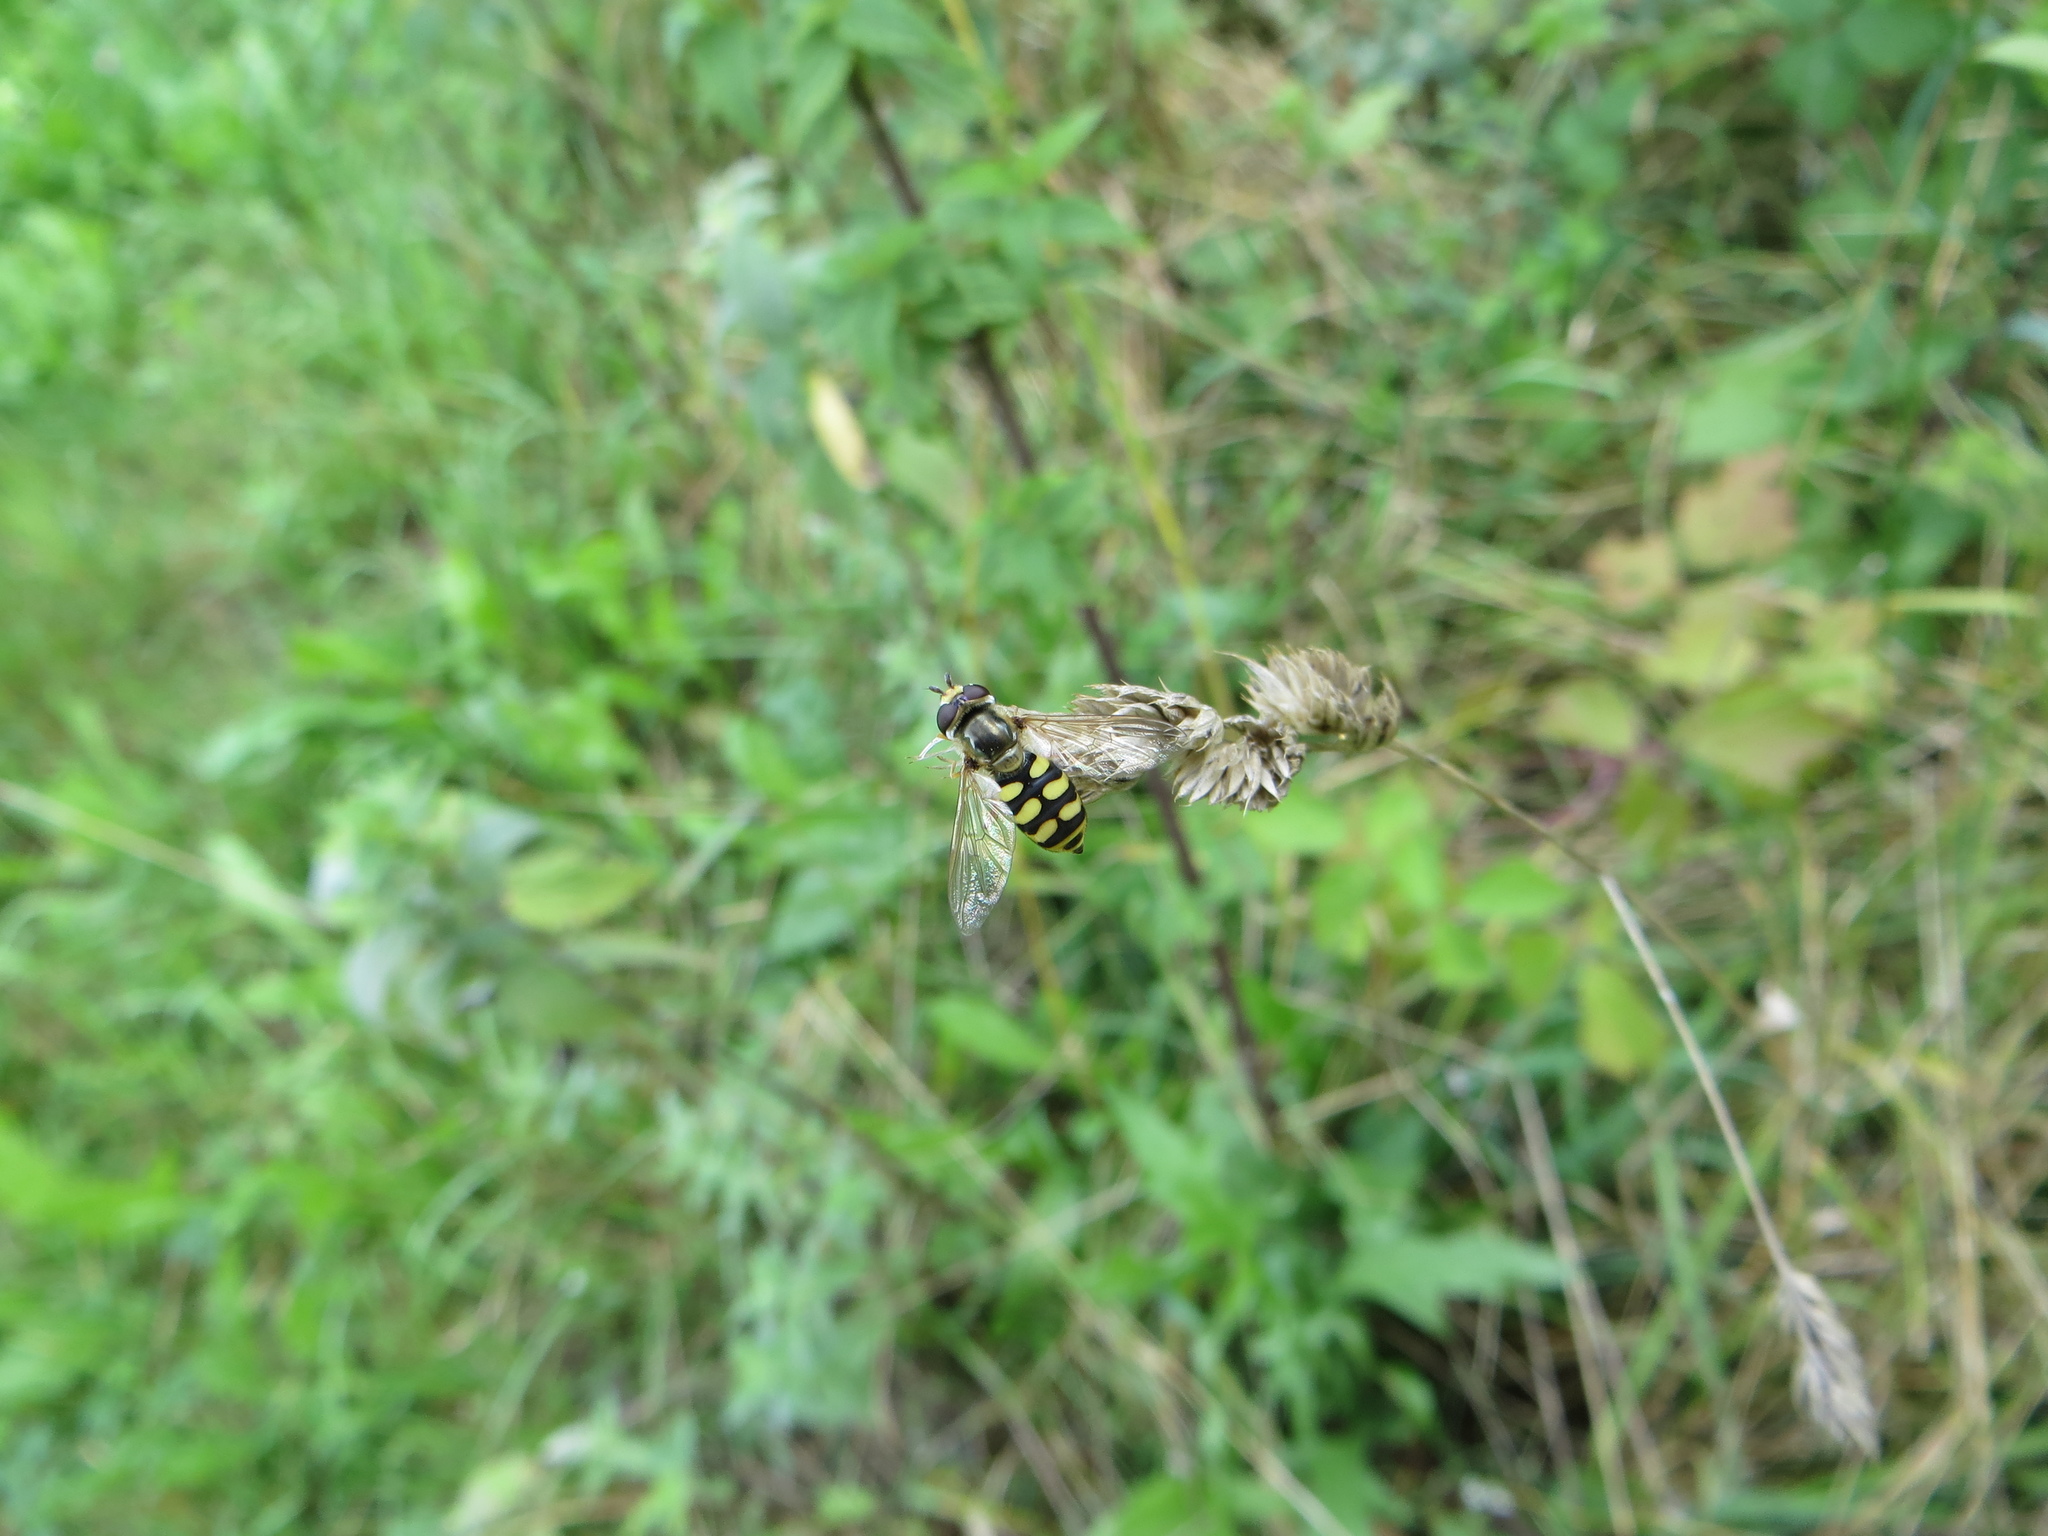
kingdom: Animalia
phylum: Arthropoda
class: Insecta
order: Diptera
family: Syrphidae
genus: Eupeodes
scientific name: Eupeodes corollae
